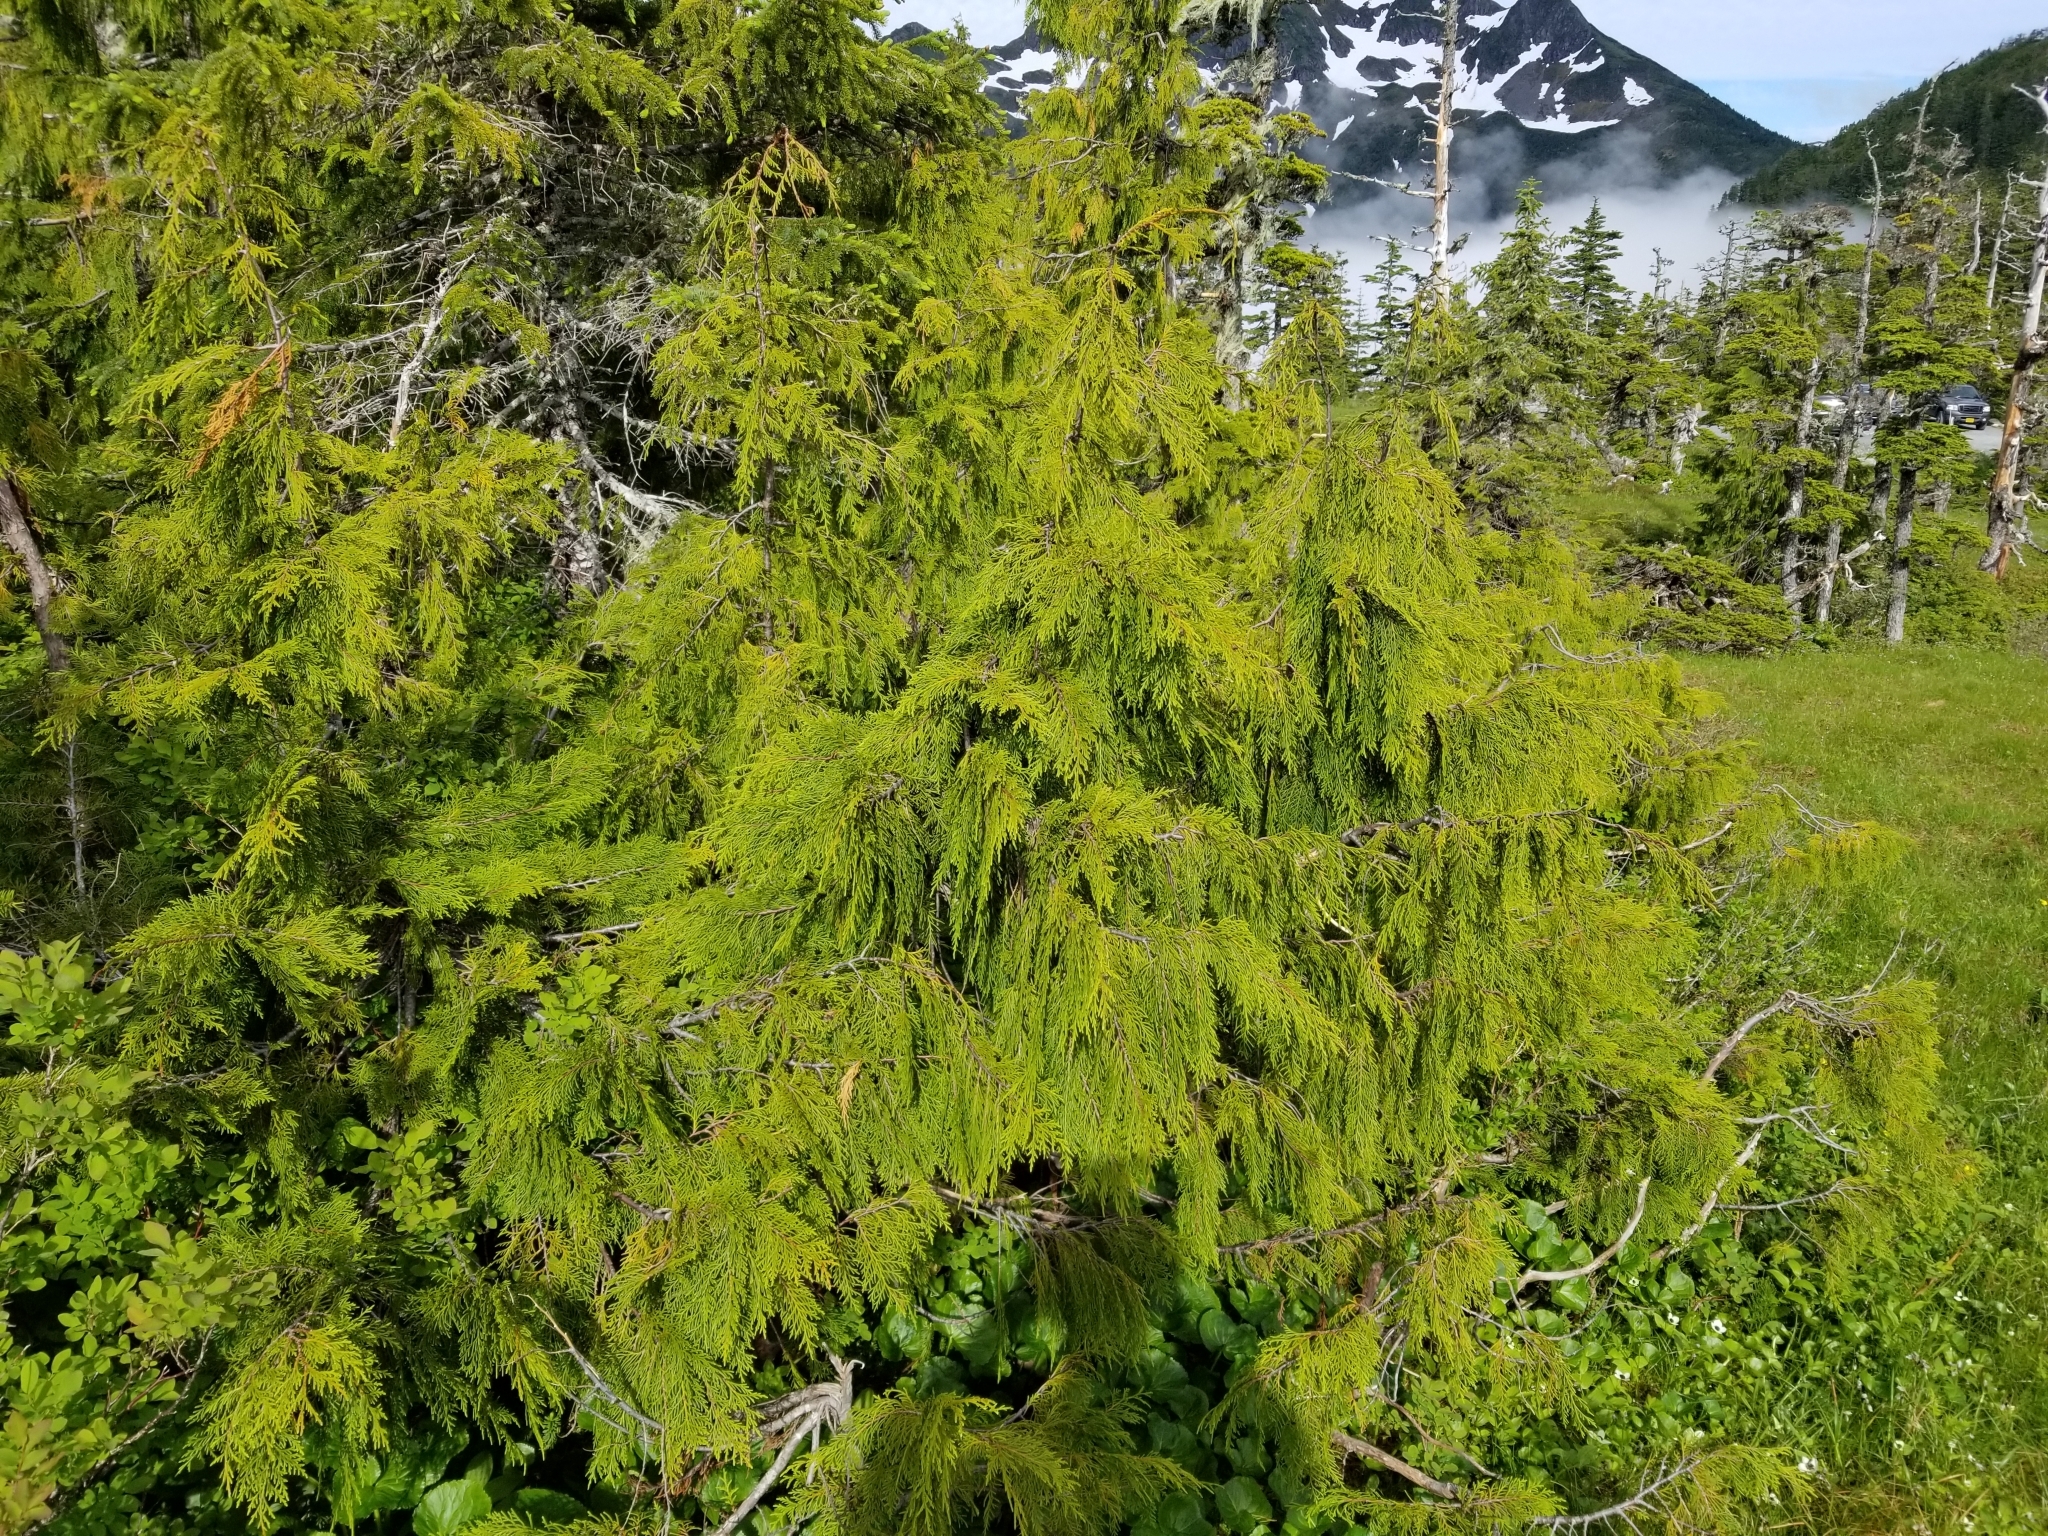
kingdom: Plantae
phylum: Tracheophyta
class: Pinopsida
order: Pinales
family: Cupressaceae
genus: Xanthocyparis
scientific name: Xanthocyparis nootkatensis
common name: Nootka cypress
